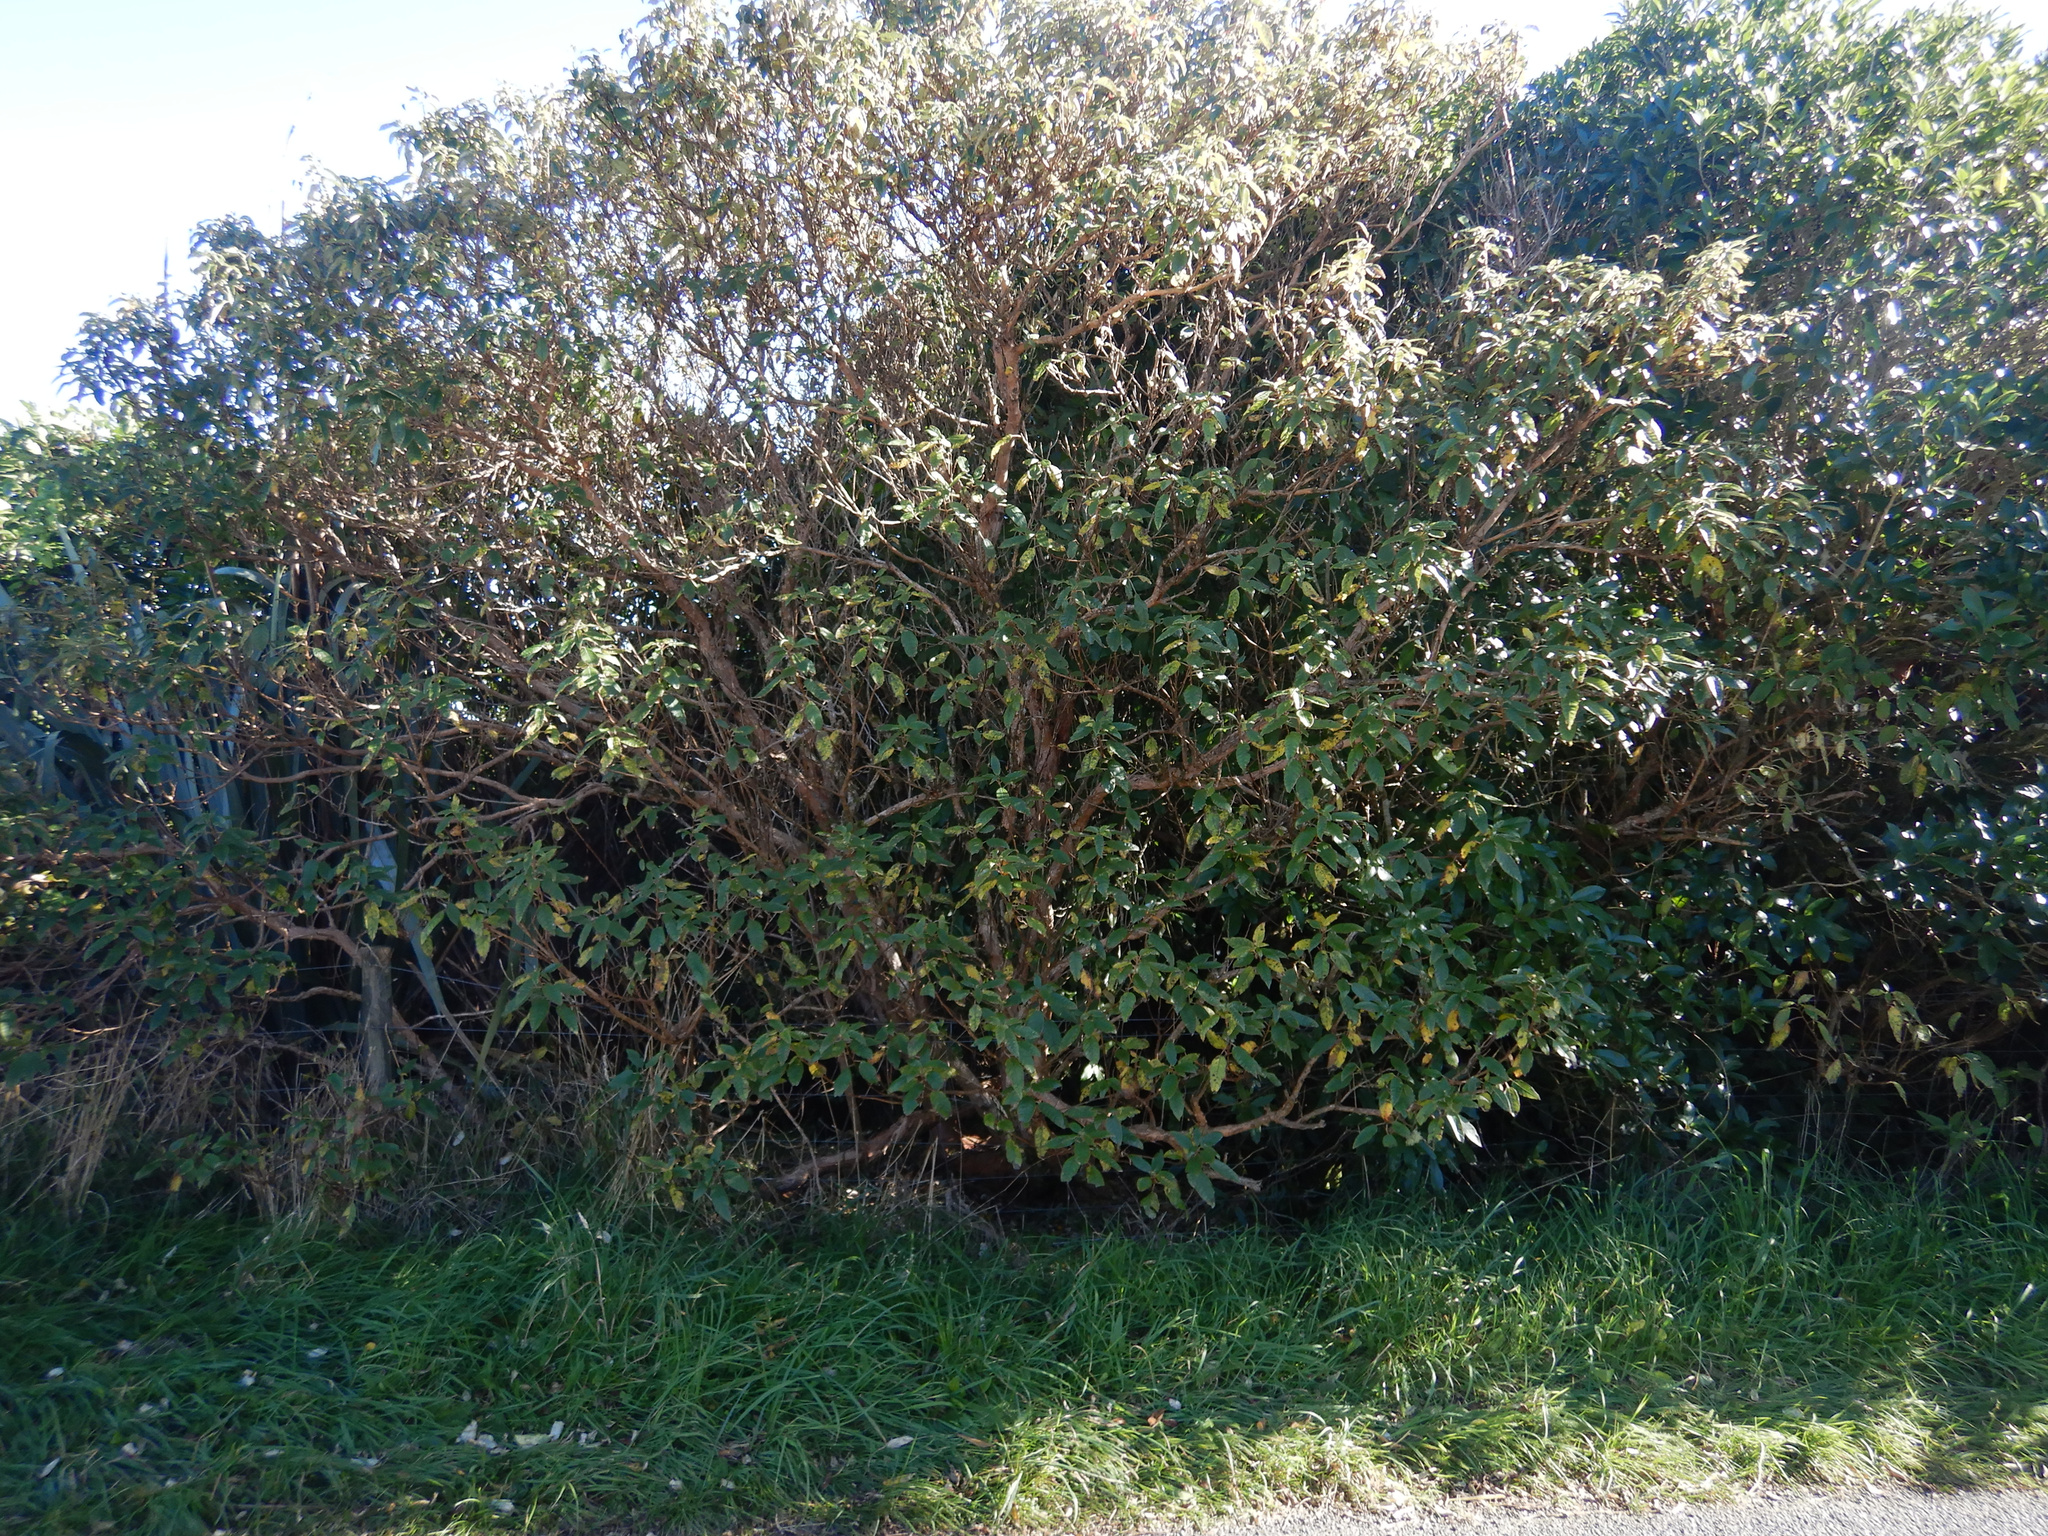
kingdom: Plantae
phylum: Tracheophyta
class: Magnoliopsida
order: Myrtales
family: Onagraceae
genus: Fuchsia
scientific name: Fuchsia excorticata
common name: Tree fuchsia
